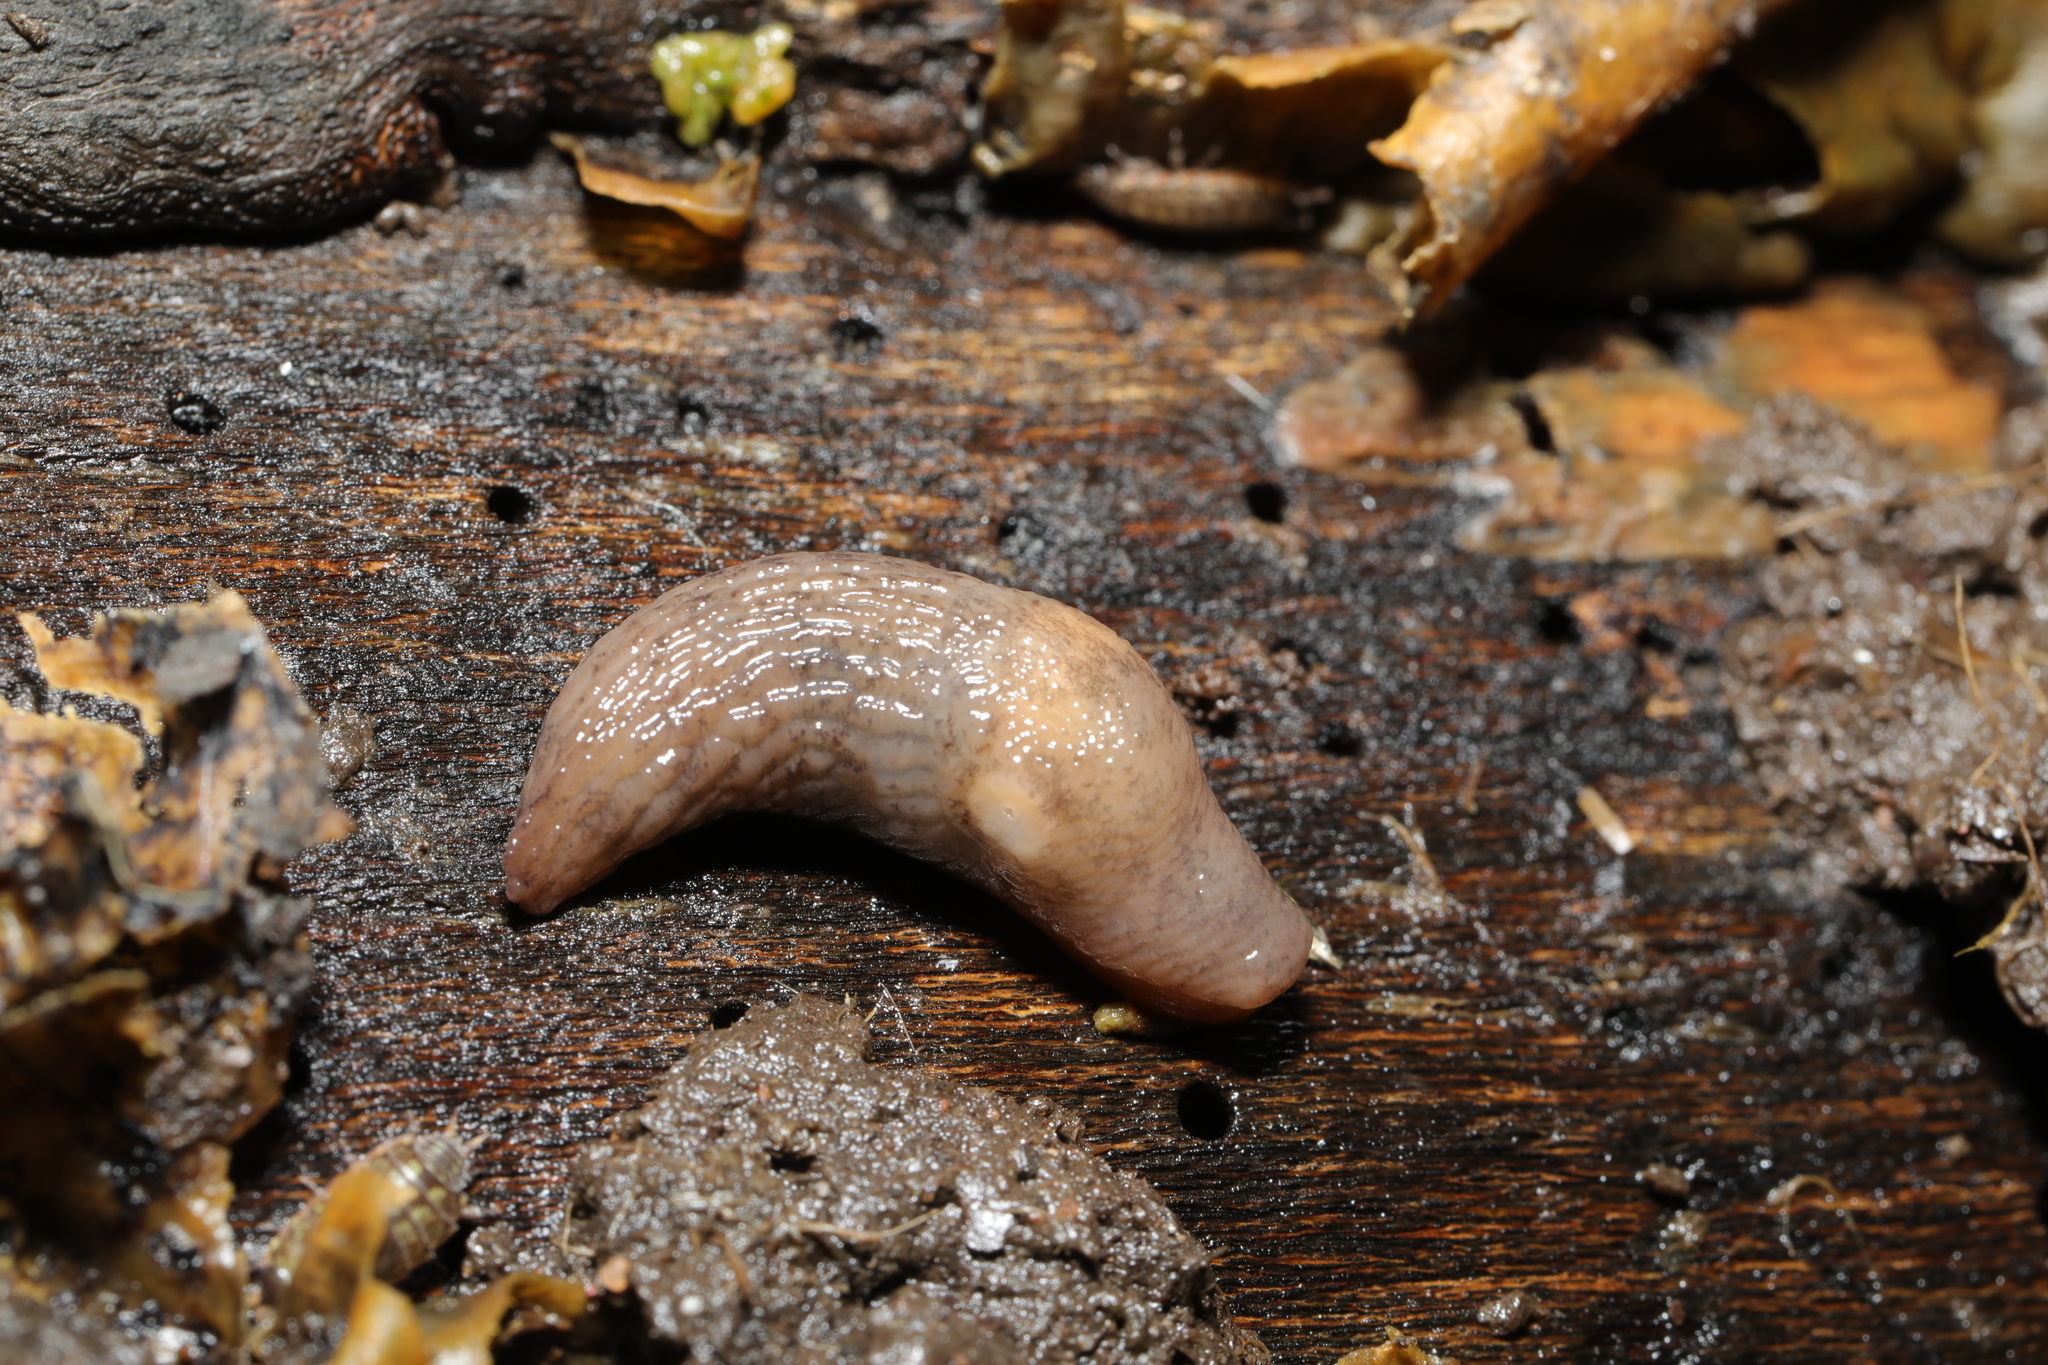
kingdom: Animalia
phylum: Mollusca
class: Gastropoda
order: Stylommatophora
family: Agriolimacidae
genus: Deroceras
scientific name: Deroceras reticulatum
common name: Gray field slug
